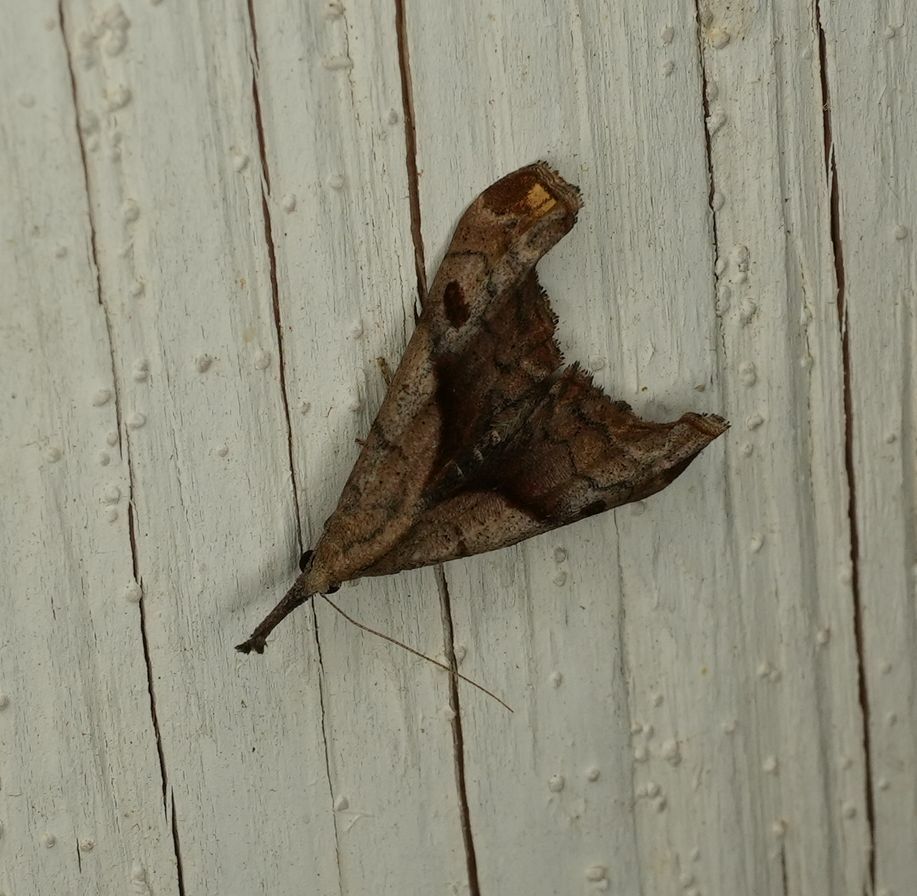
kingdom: Animalia
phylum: Arthropoda
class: Insecta
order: Lepidoptera
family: Erebidae
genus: Palthis
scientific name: Palthis angulalis
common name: Dark-spotted palthis moth
